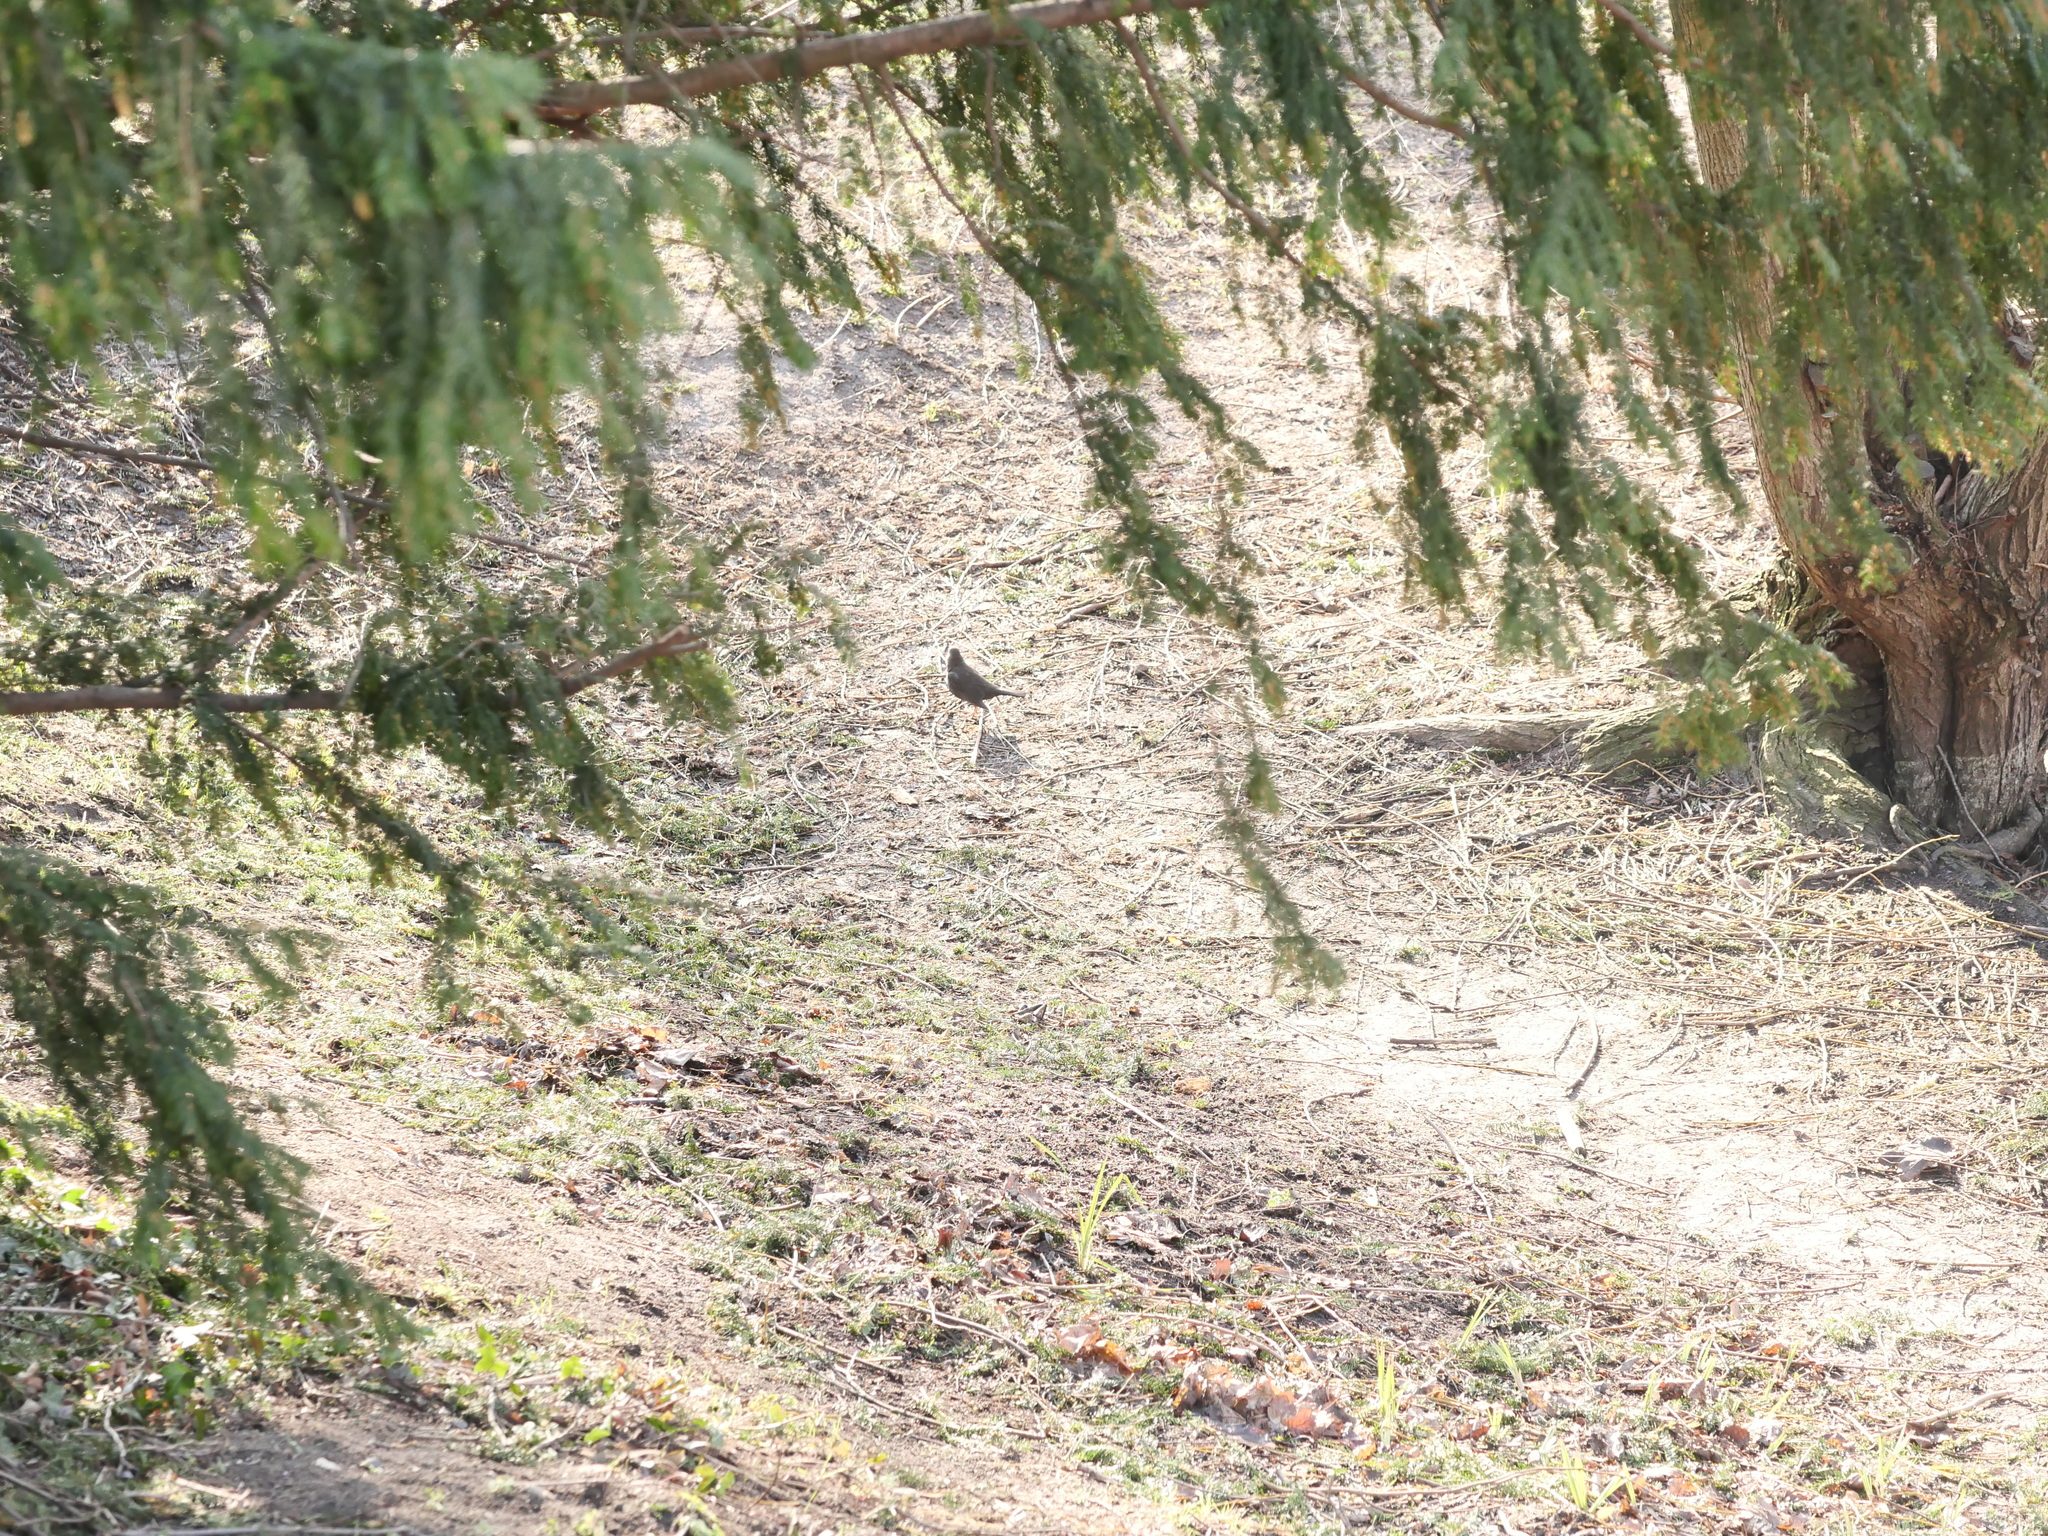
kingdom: Animalia
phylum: Chordata
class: Aves
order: Passeriformes
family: Turdidae
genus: Turdus
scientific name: Turdus merula
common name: Common blackbird
